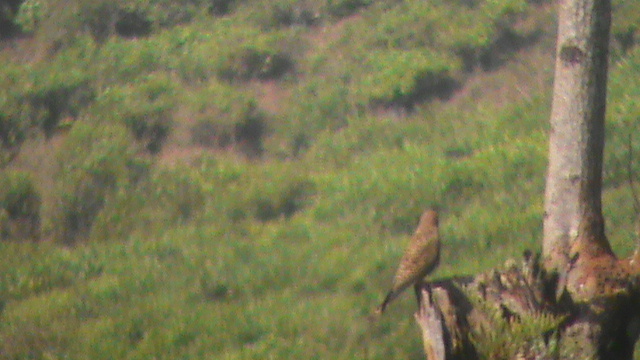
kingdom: Animalia
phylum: Chordata
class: Aves
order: Falconiformes
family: Falconidae
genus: Falco
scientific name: Falco tinnunculus
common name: Common kestrel
